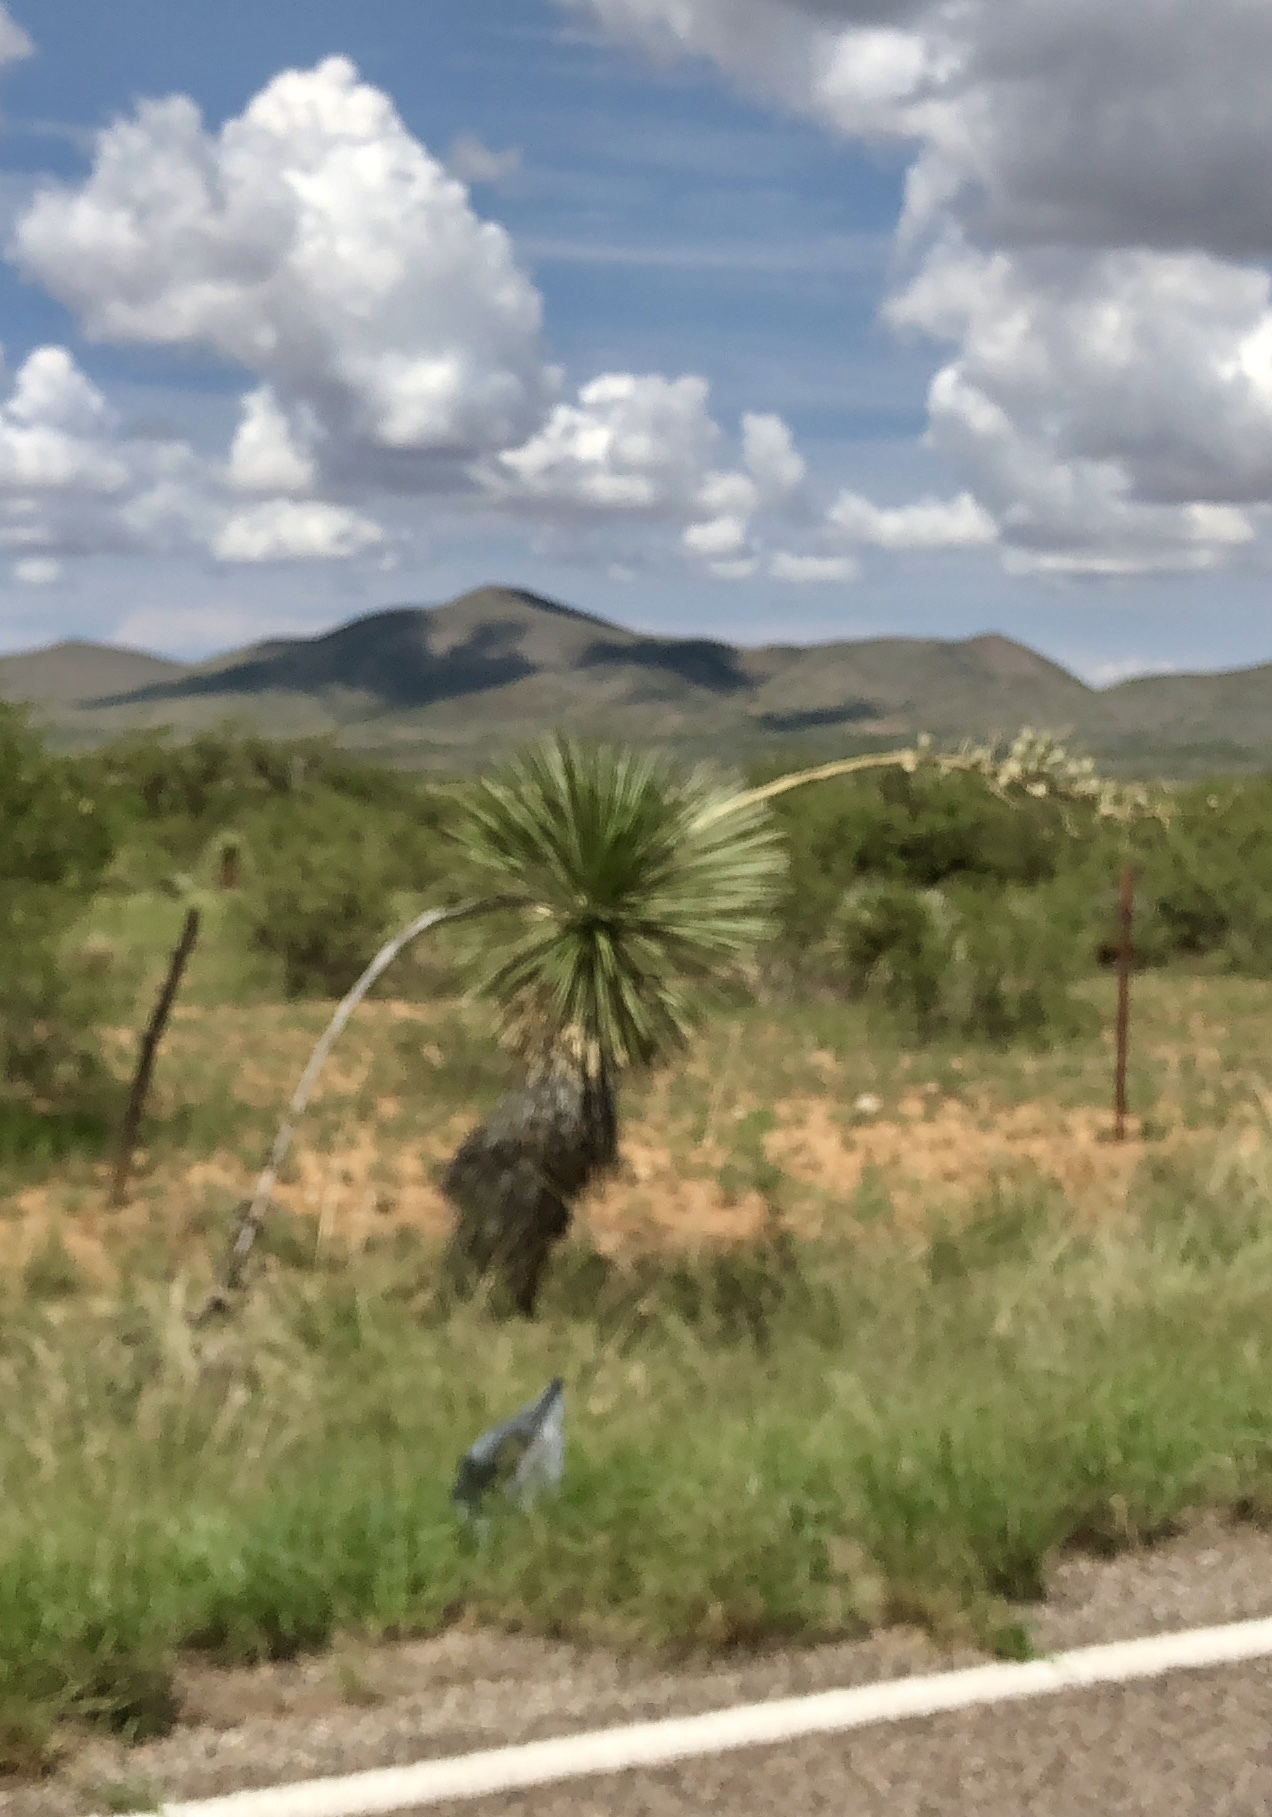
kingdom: Plantae
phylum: Tracheophyta
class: Liliopsida
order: Asparagales
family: Asparagaceae
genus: Yucca
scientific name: Yucca elata
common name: Palmella
